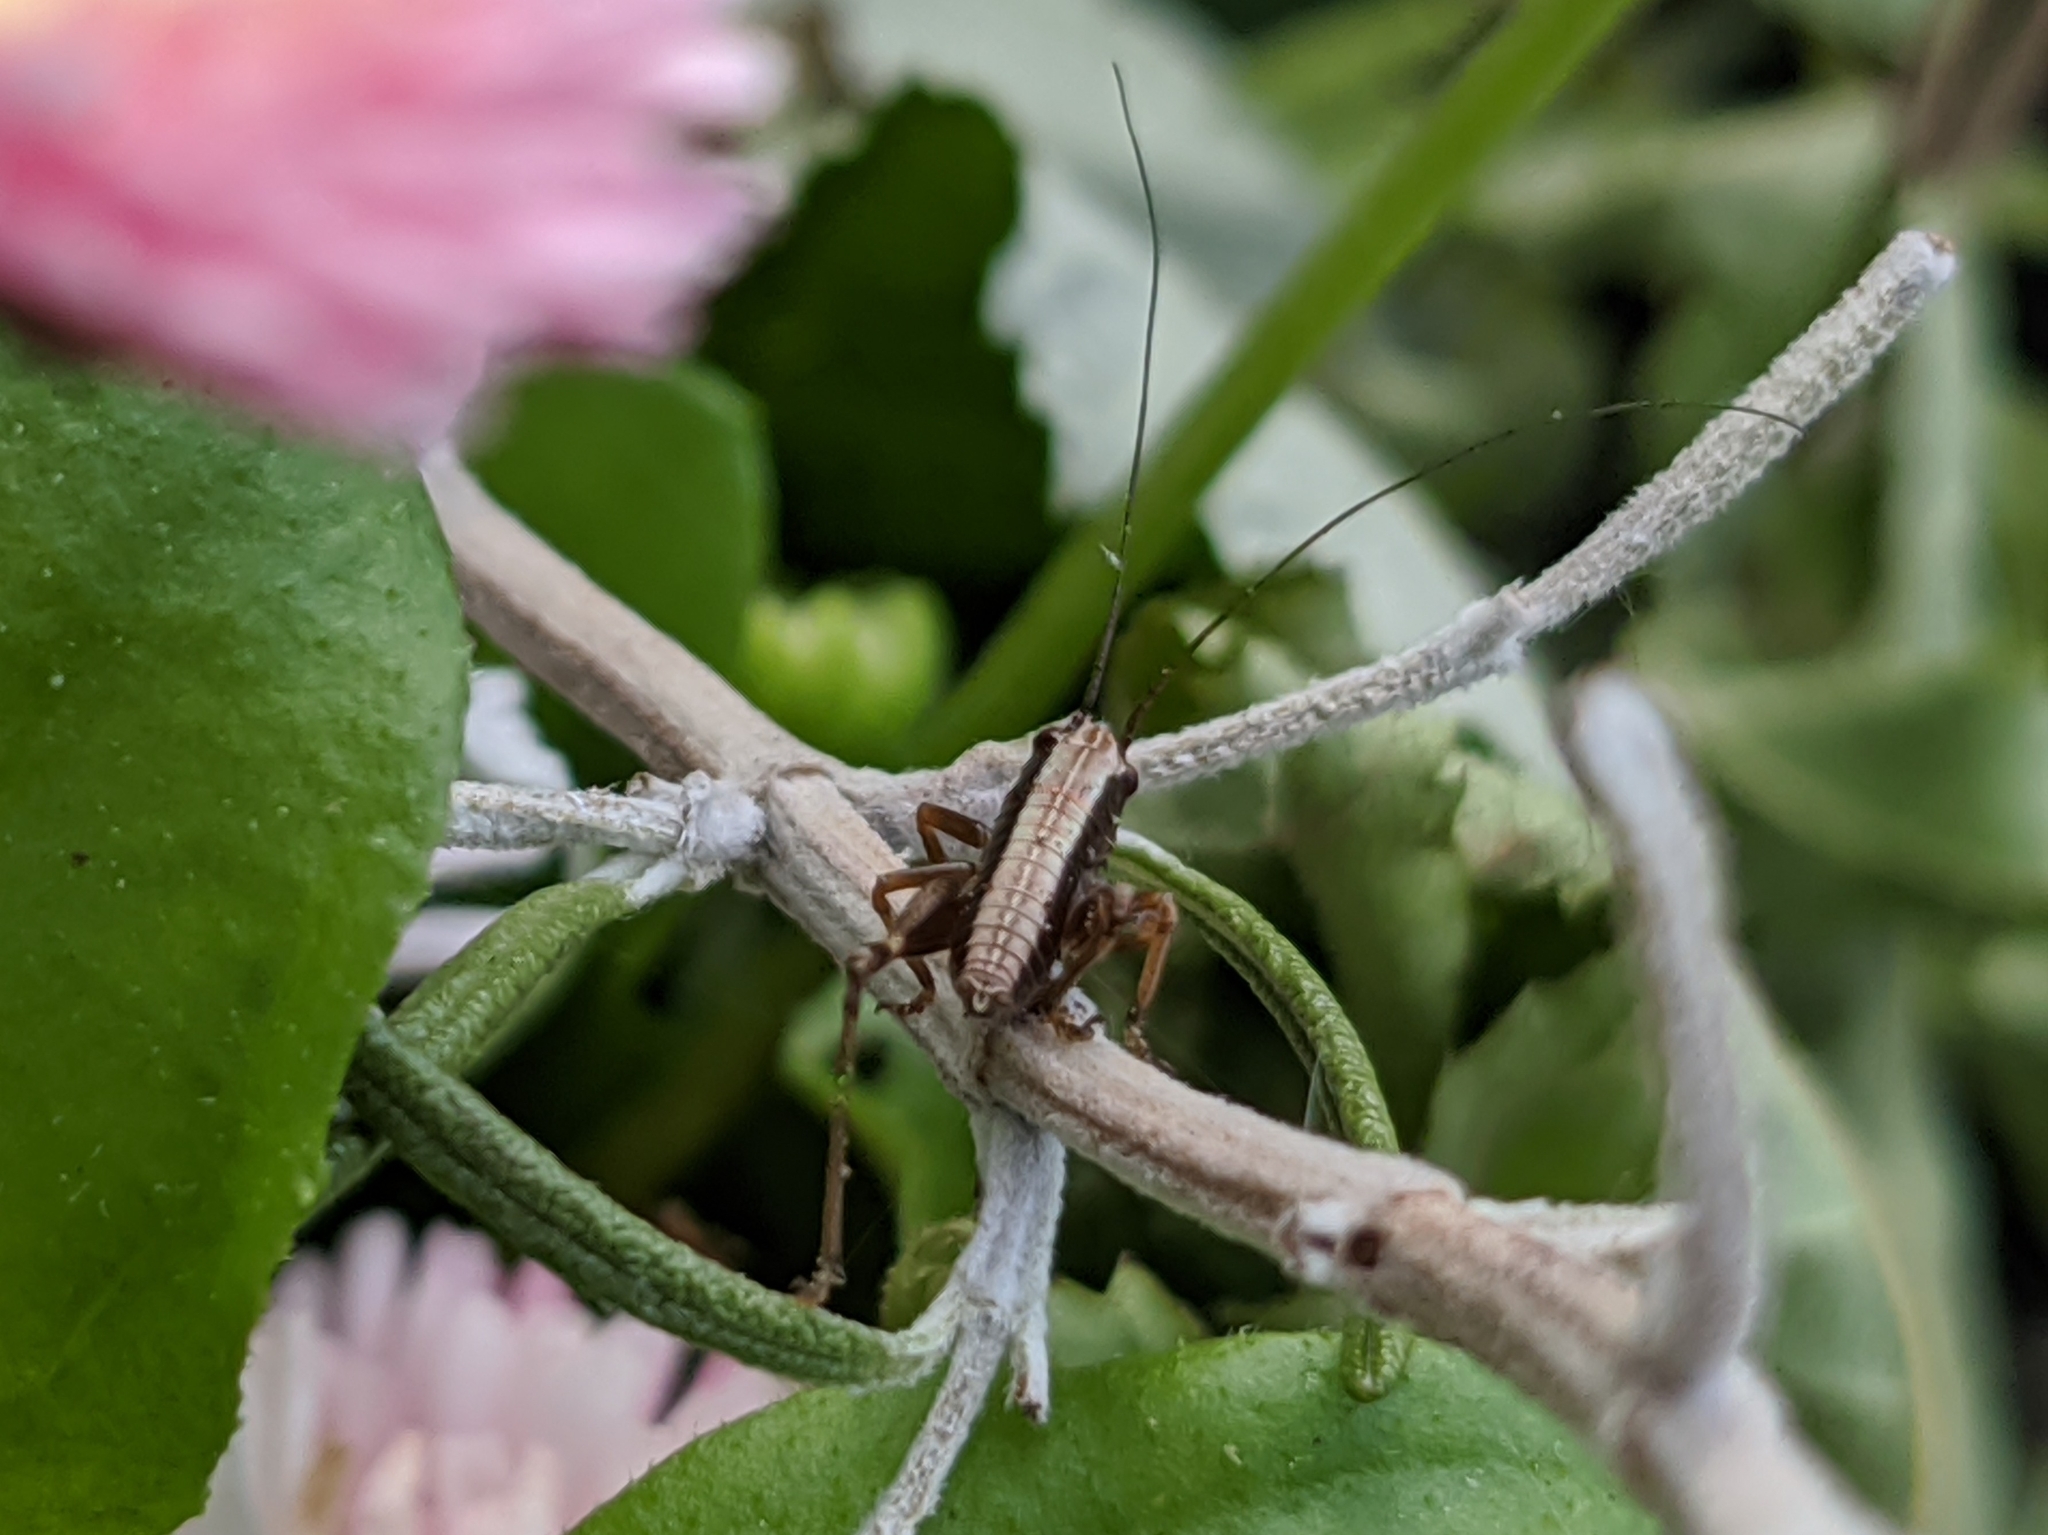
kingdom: Animalia
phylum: Arthropoda
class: Insecta
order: Orthoptera
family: Tettigoniidae
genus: Pholidoptera
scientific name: Pholidoptera griseoaptera
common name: Dark bush-cricket
